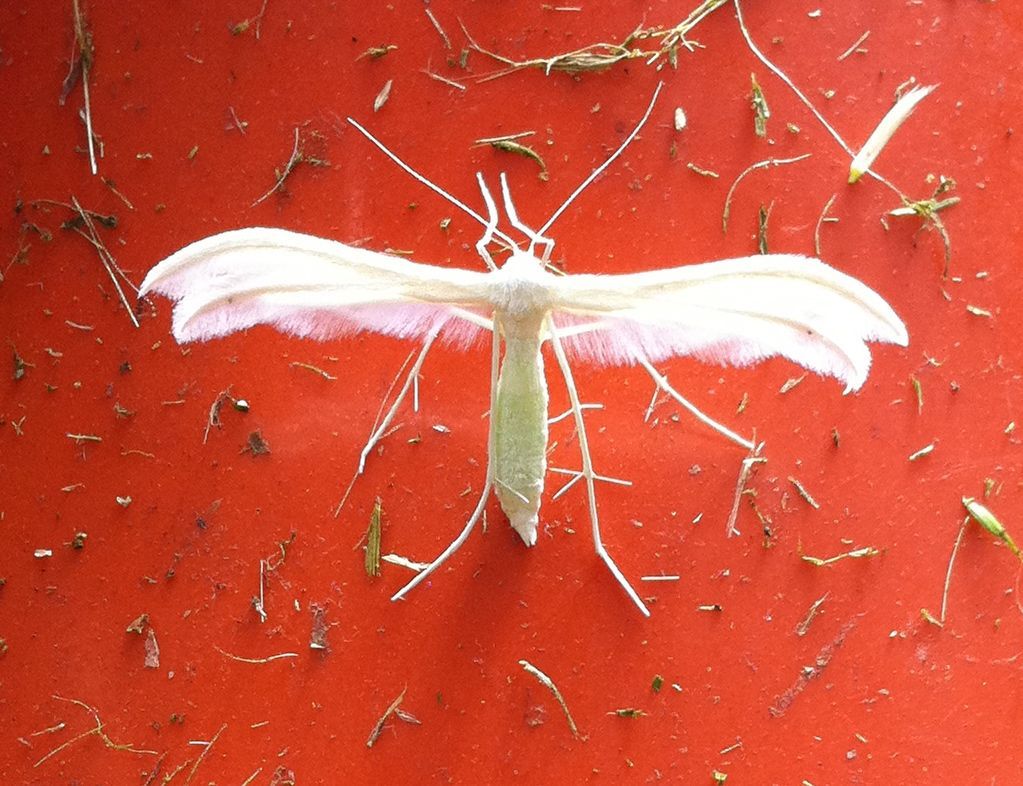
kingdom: Animalia
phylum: Arthropoda
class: Insecta
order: Lepidoptera
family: Pterophoridae
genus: Pterophorus
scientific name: Pterophorus pentadactyla
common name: White plume moth
